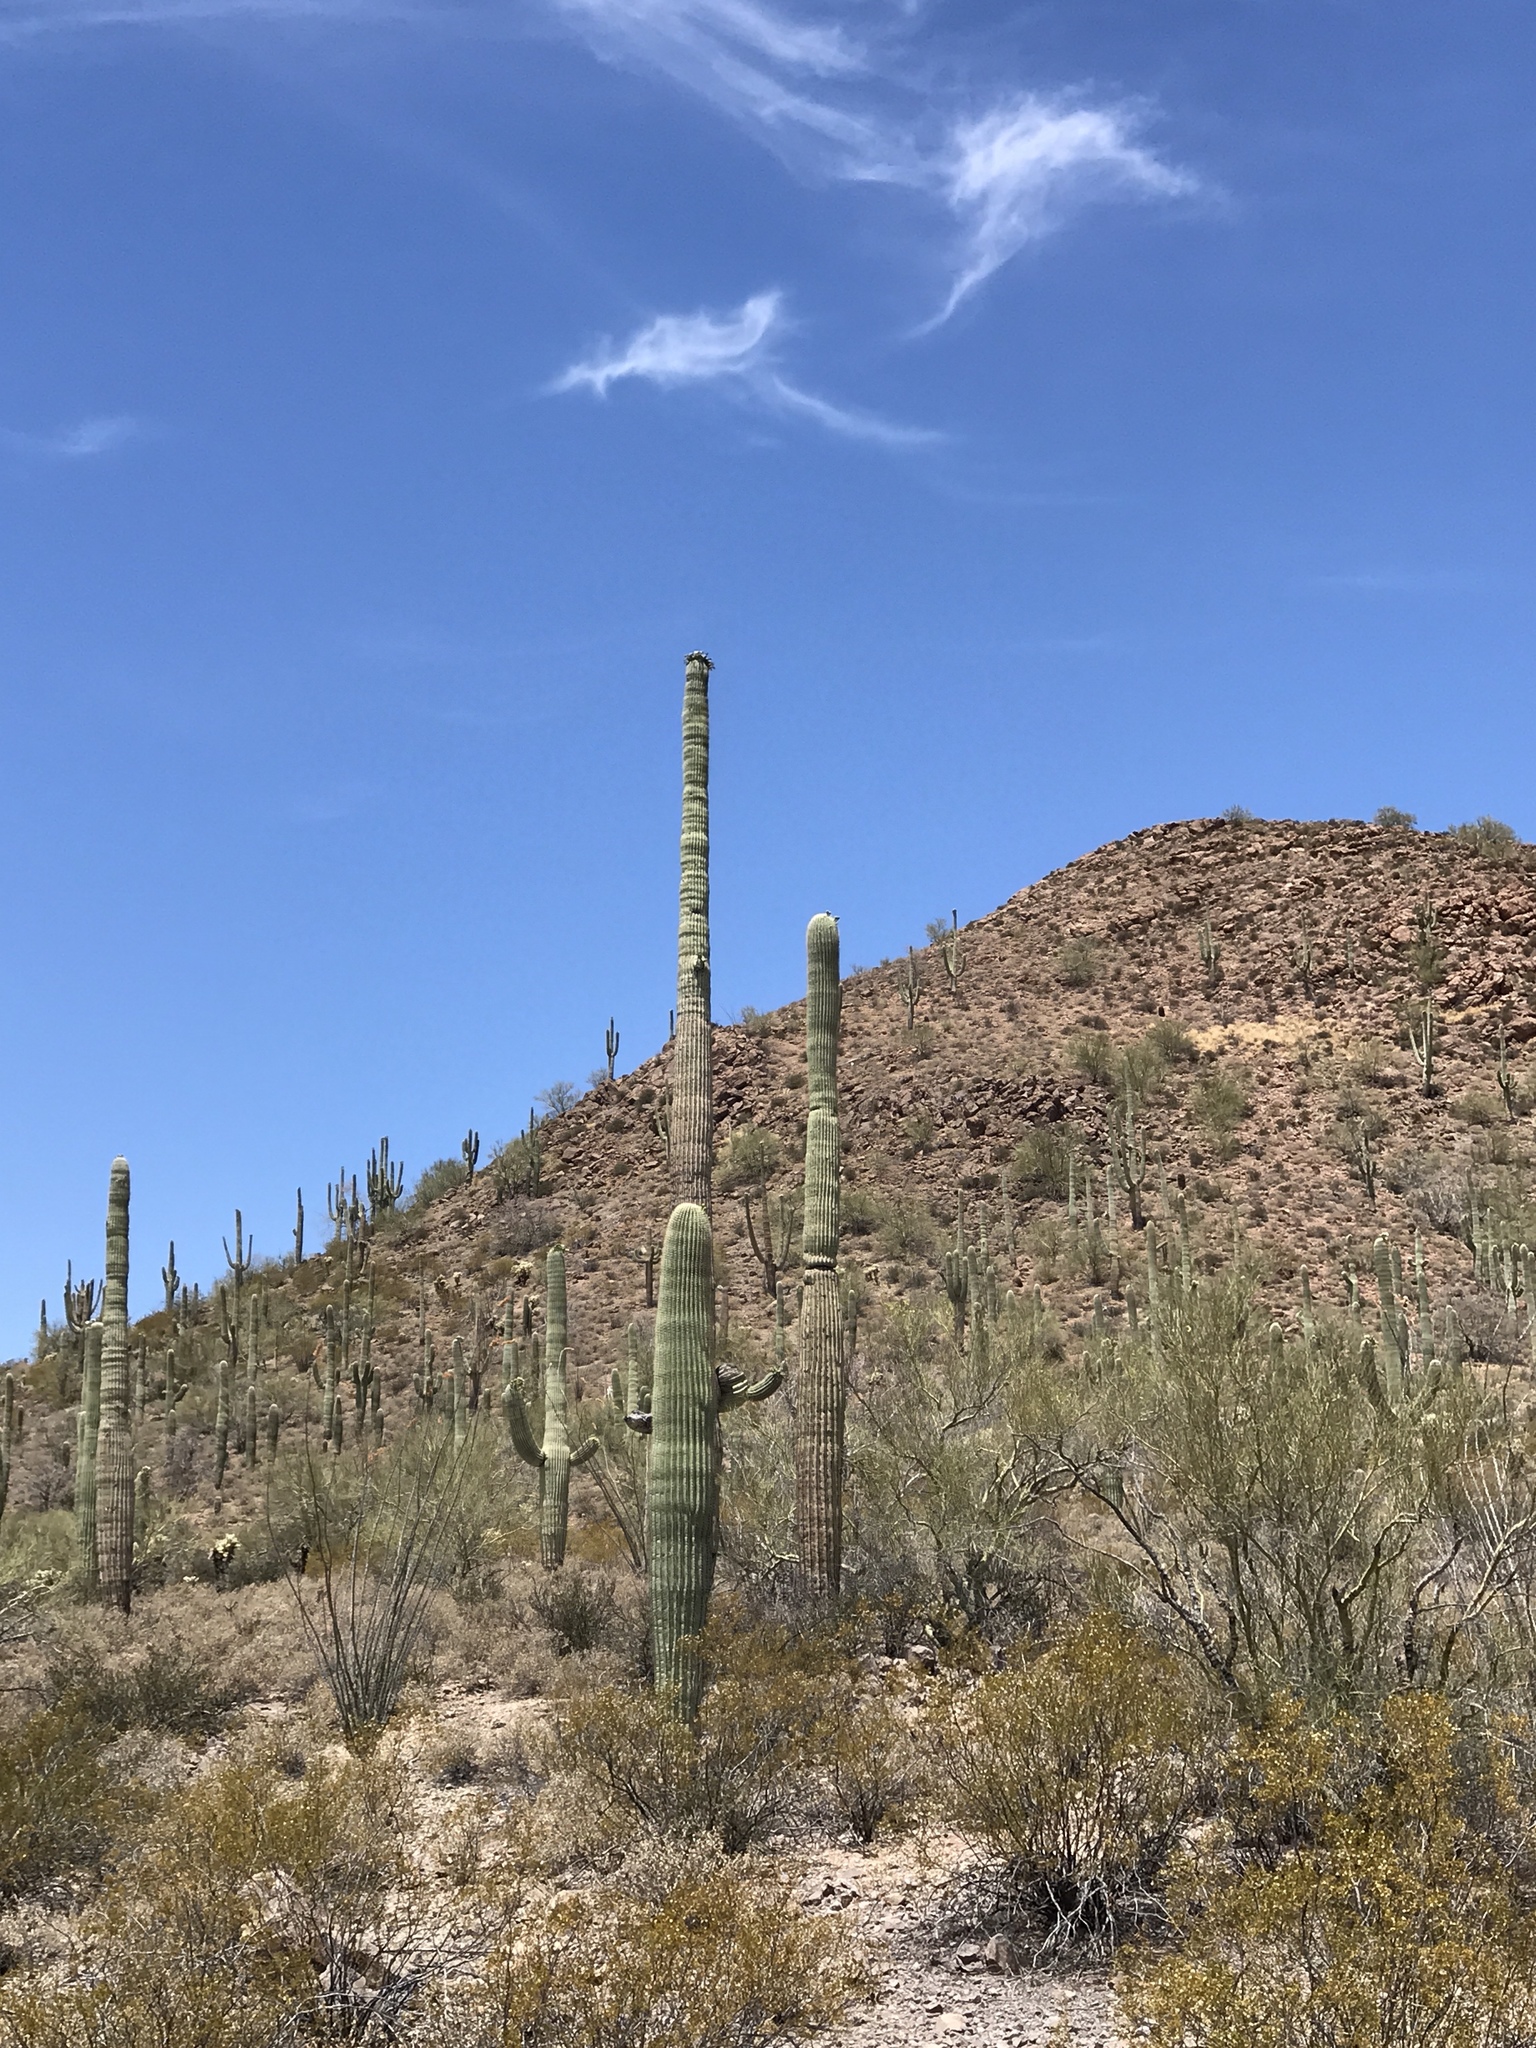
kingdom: Plantae
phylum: Tracheophyta
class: Magnoliopsida
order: Caryophyllales
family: Cactaceae
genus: Carnegiea
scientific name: Carnegiea gigantea
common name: Saguaro
